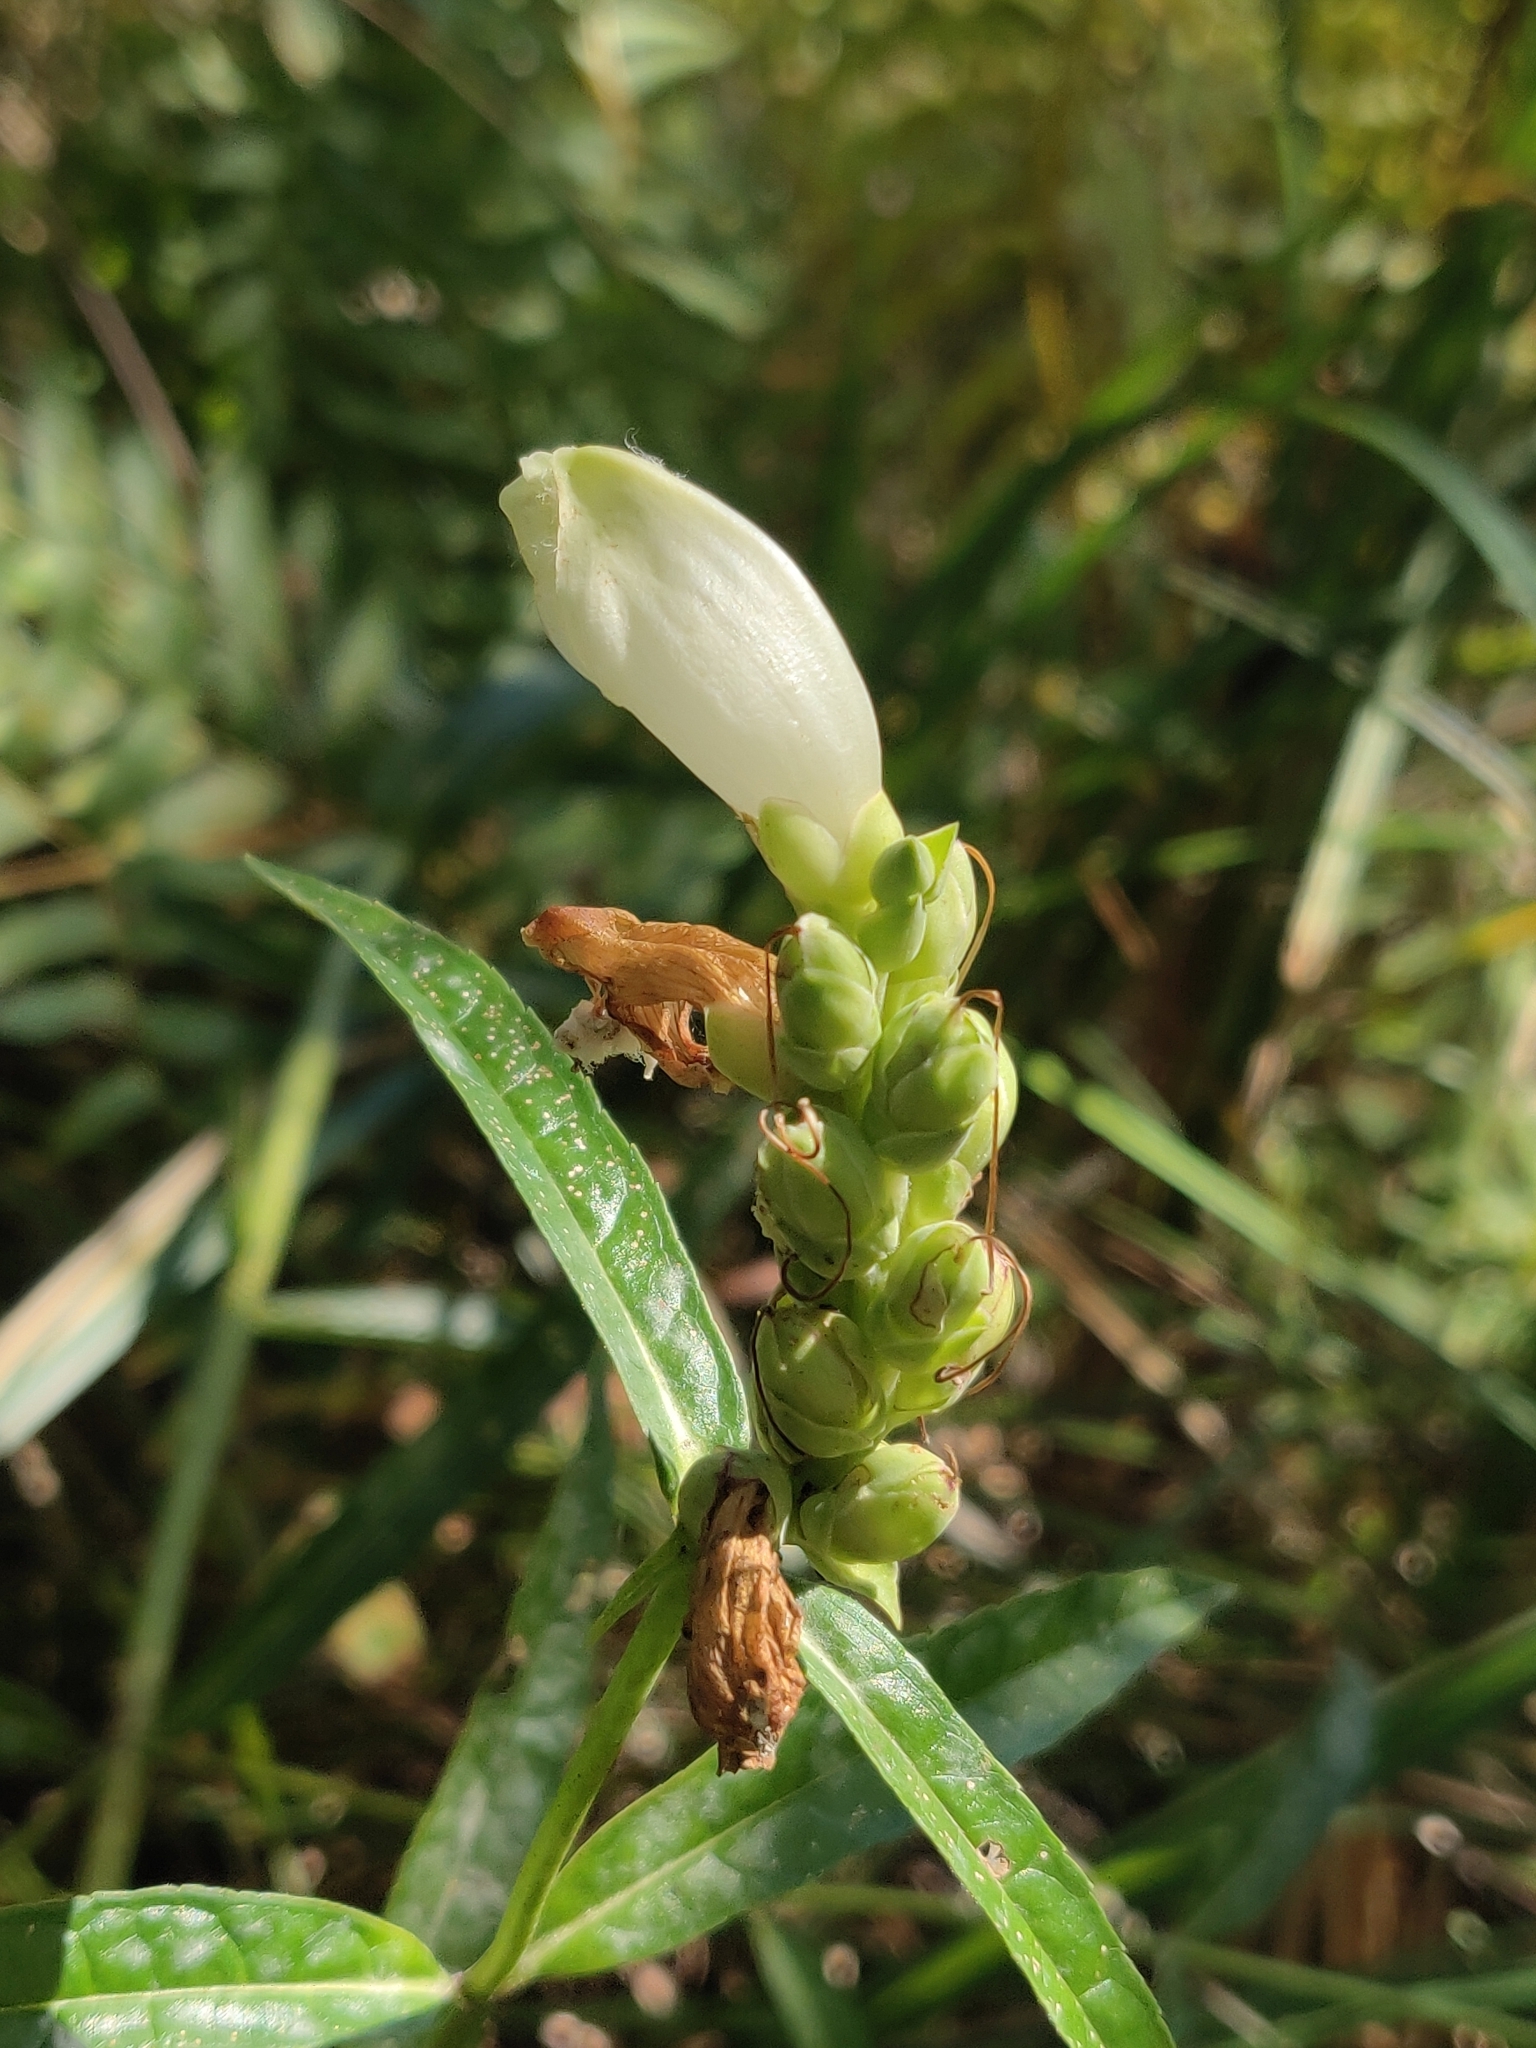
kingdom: Plantae
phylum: Tracheophyta
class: Magnoliopsida
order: Lamiales
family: Plantaginaceae
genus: Chelone
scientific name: Chelone glabra
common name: Snakehead
